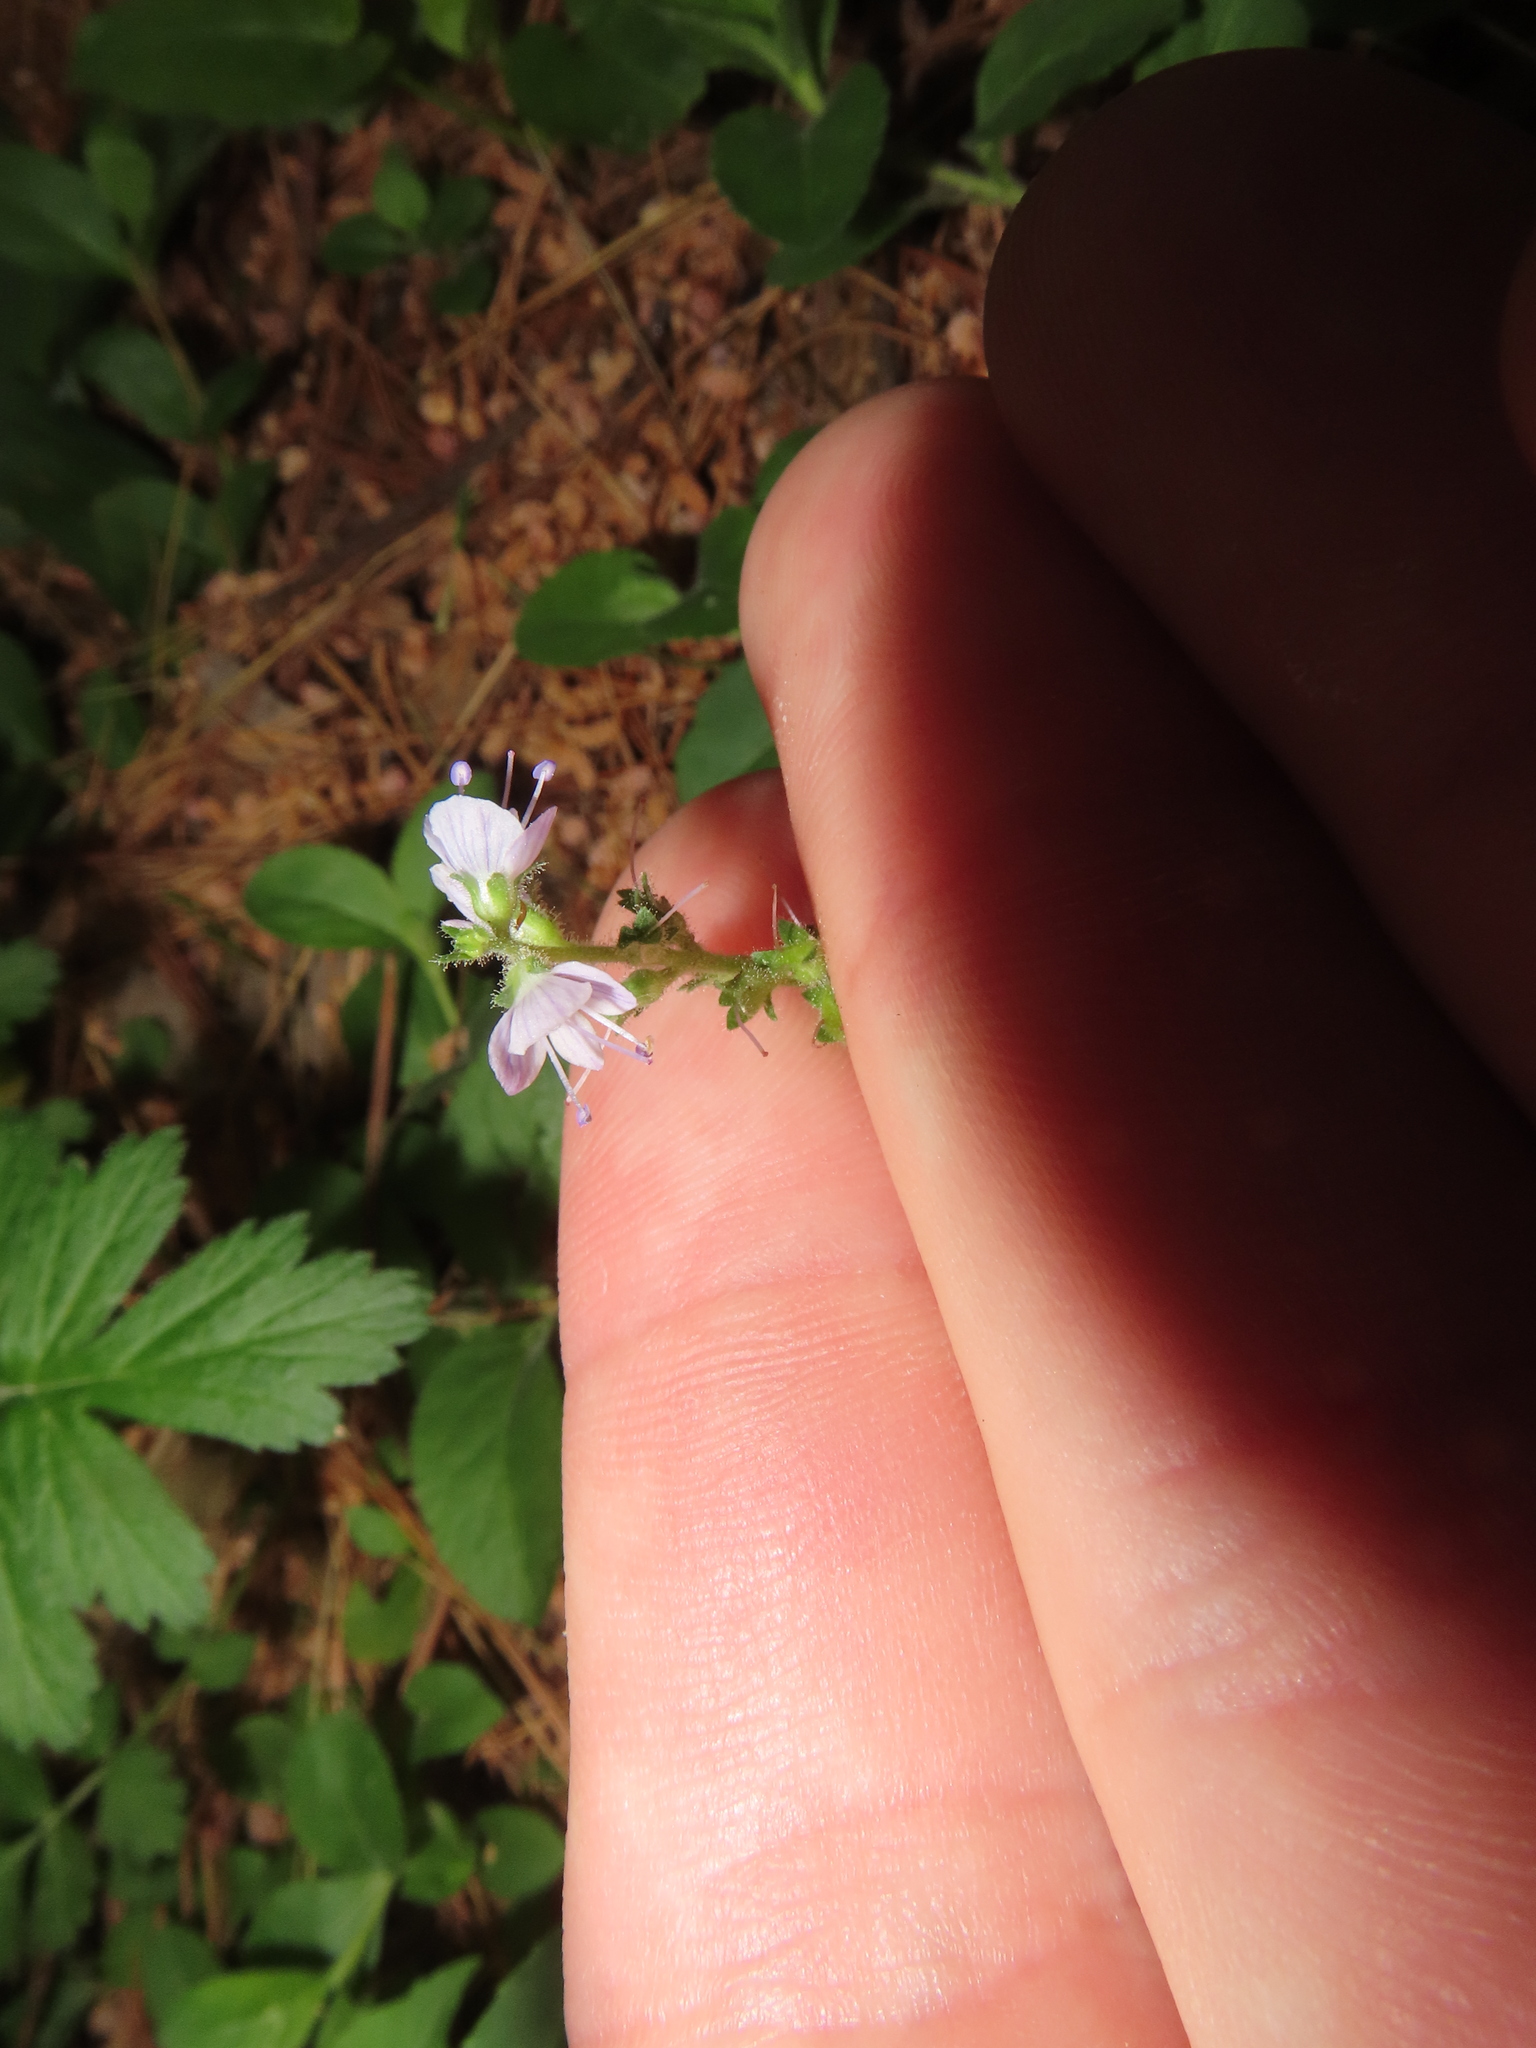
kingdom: Plantae
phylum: Tracheophyta
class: Magnoliopsida
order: Lamiales
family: Plantaginaceae
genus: Veronica
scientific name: Veronica officinalis
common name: Common speedwell
